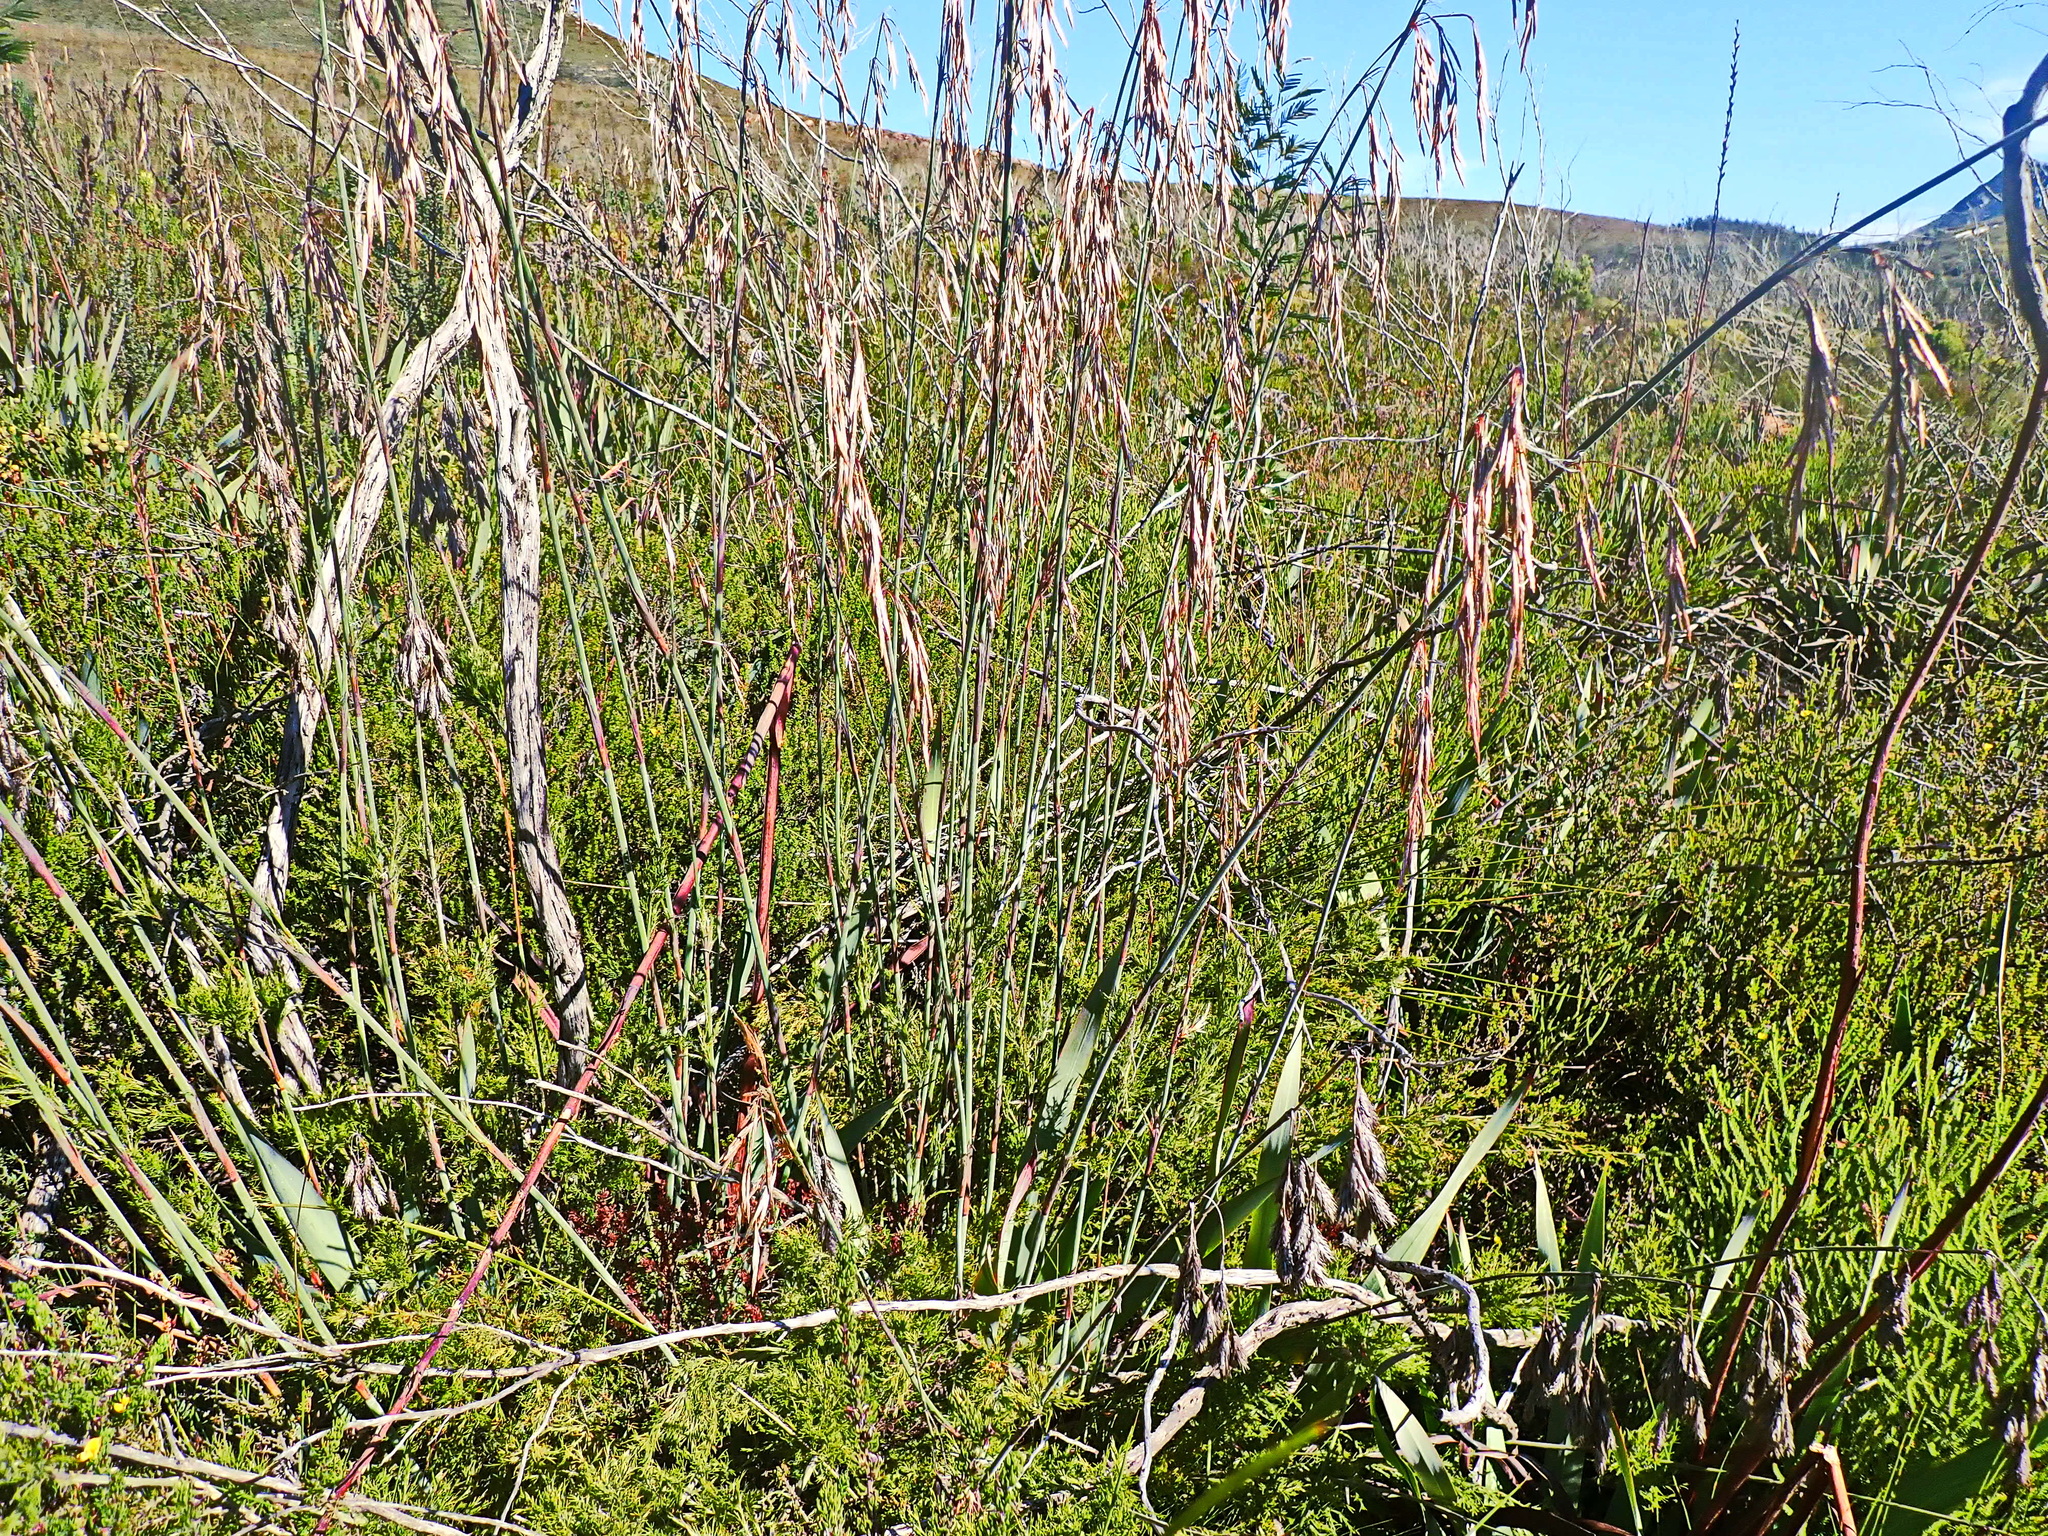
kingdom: Plantae
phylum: Tracheophyta
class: Liliopsida
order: Poales
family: Restionaceae
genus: Thamnochortus
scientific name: Thamnochortus cinereus
